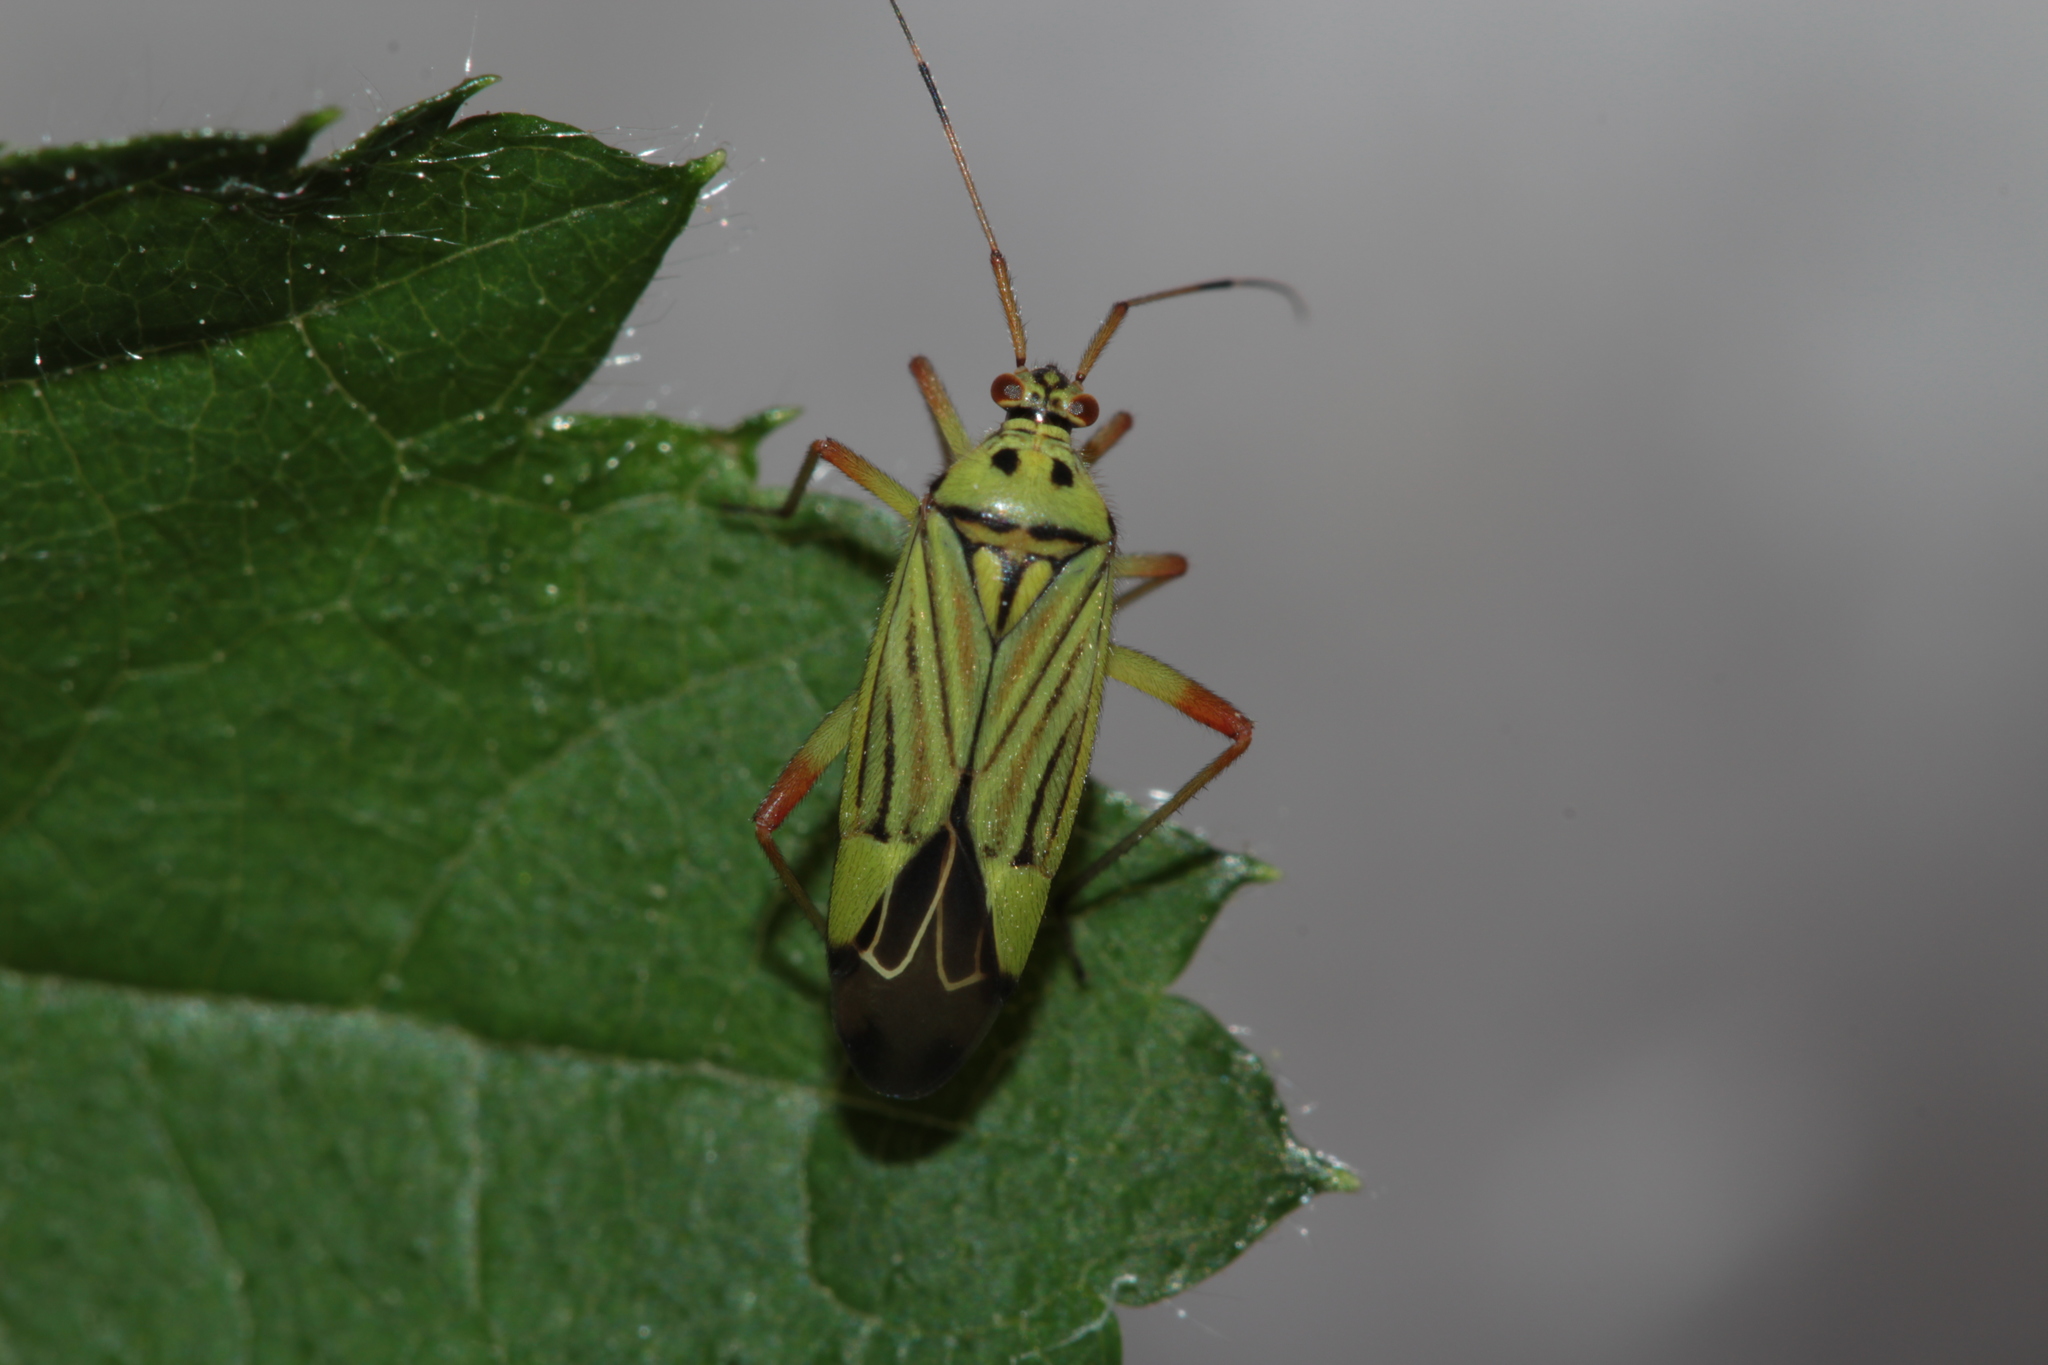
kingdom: Animalia
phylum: Arthropoda
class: Insecta
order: Hemiptera
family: Miridae
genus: Mermitelocerus
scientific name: Mermitelocerus schmidtii
